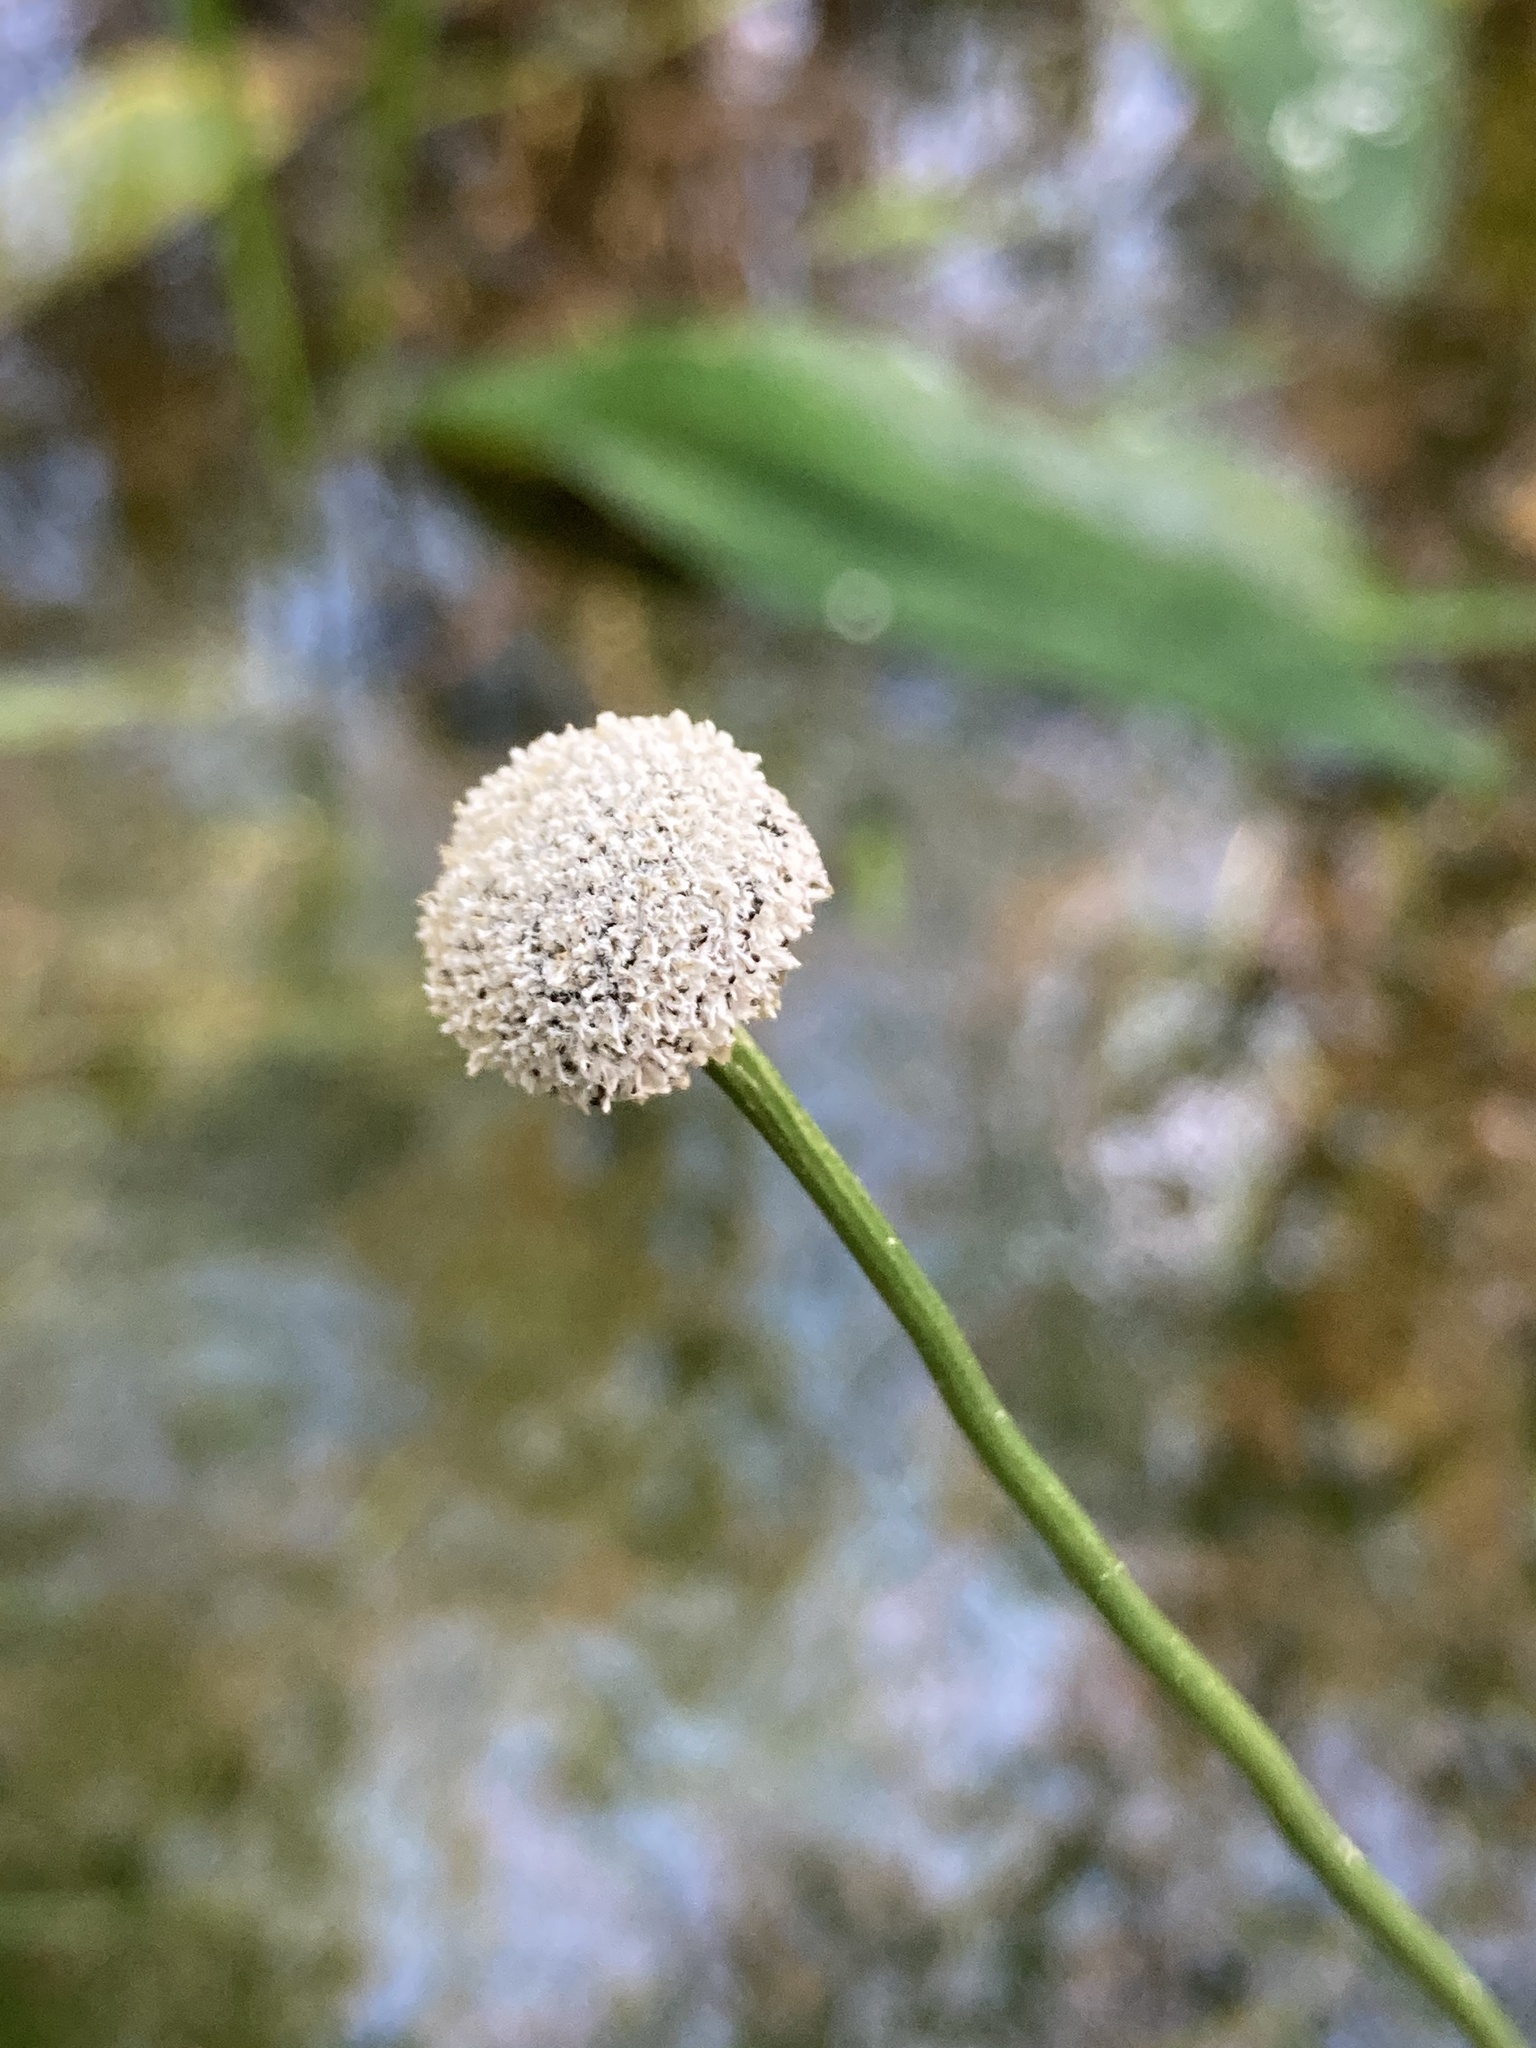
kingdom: Plantae
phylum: Tracheophyta
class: Liliopsida
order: Poales
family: Eriocaulaceae
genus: Eriocaulon
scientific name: Eriocaulon compressum
